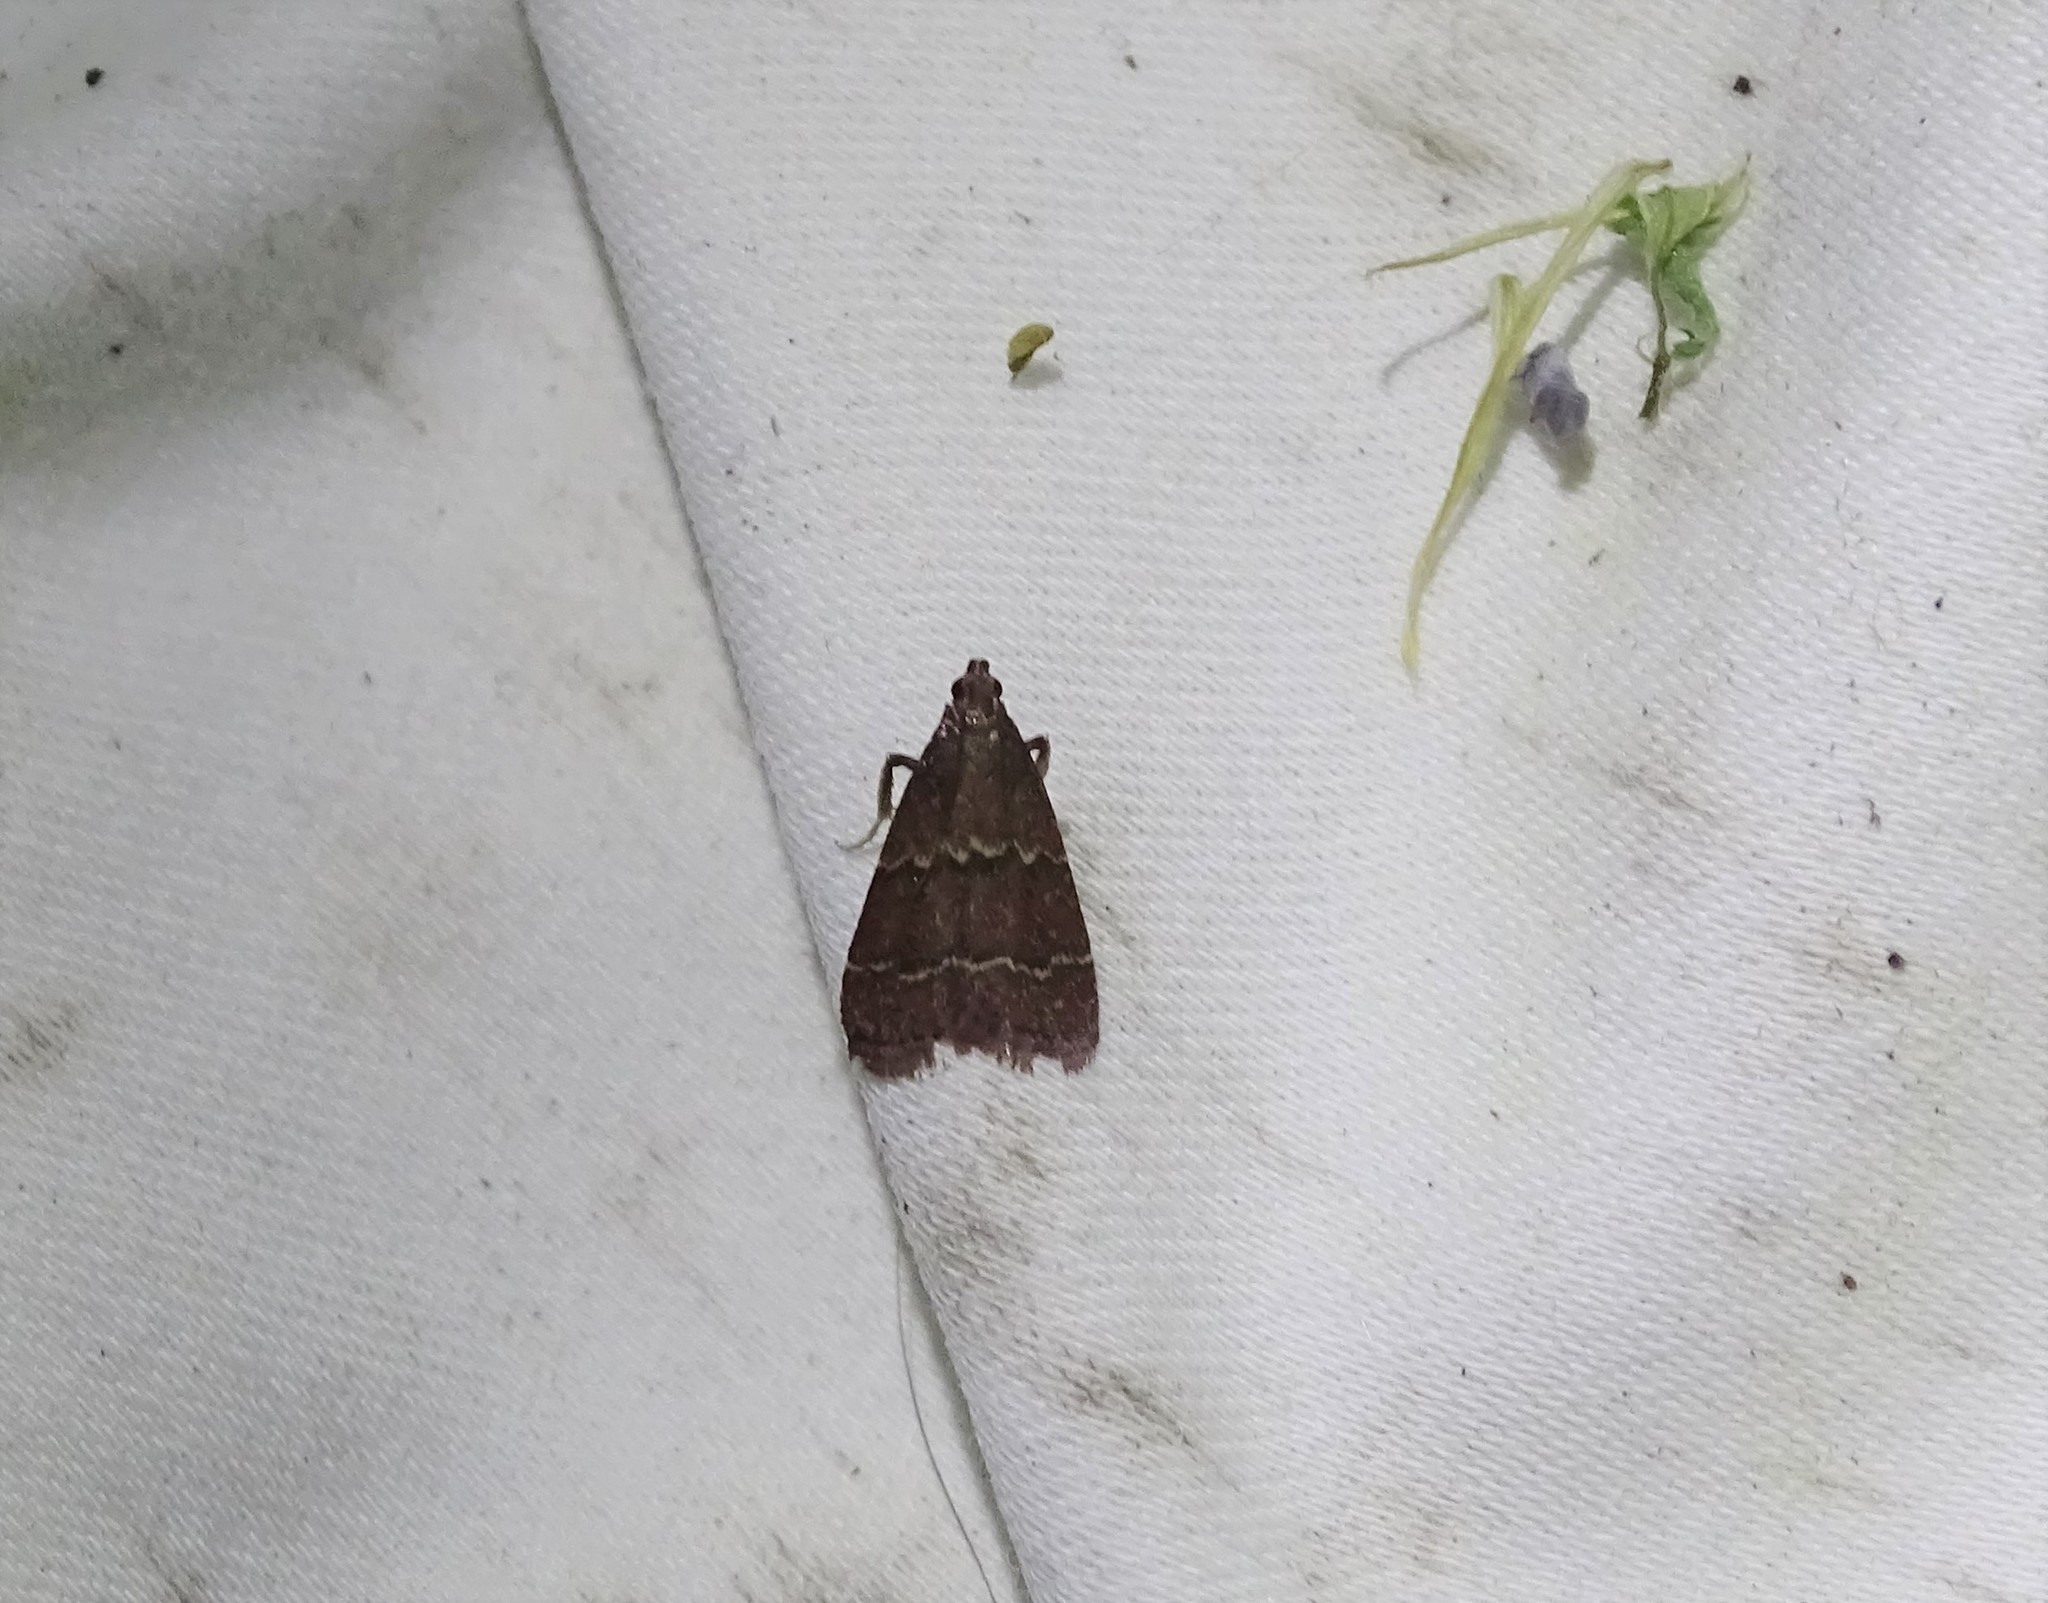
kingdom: Animalia
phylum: Arthropoda
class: Insecta
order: Lepidoptera
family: Pyralidae
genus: Arta
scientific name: Arta
